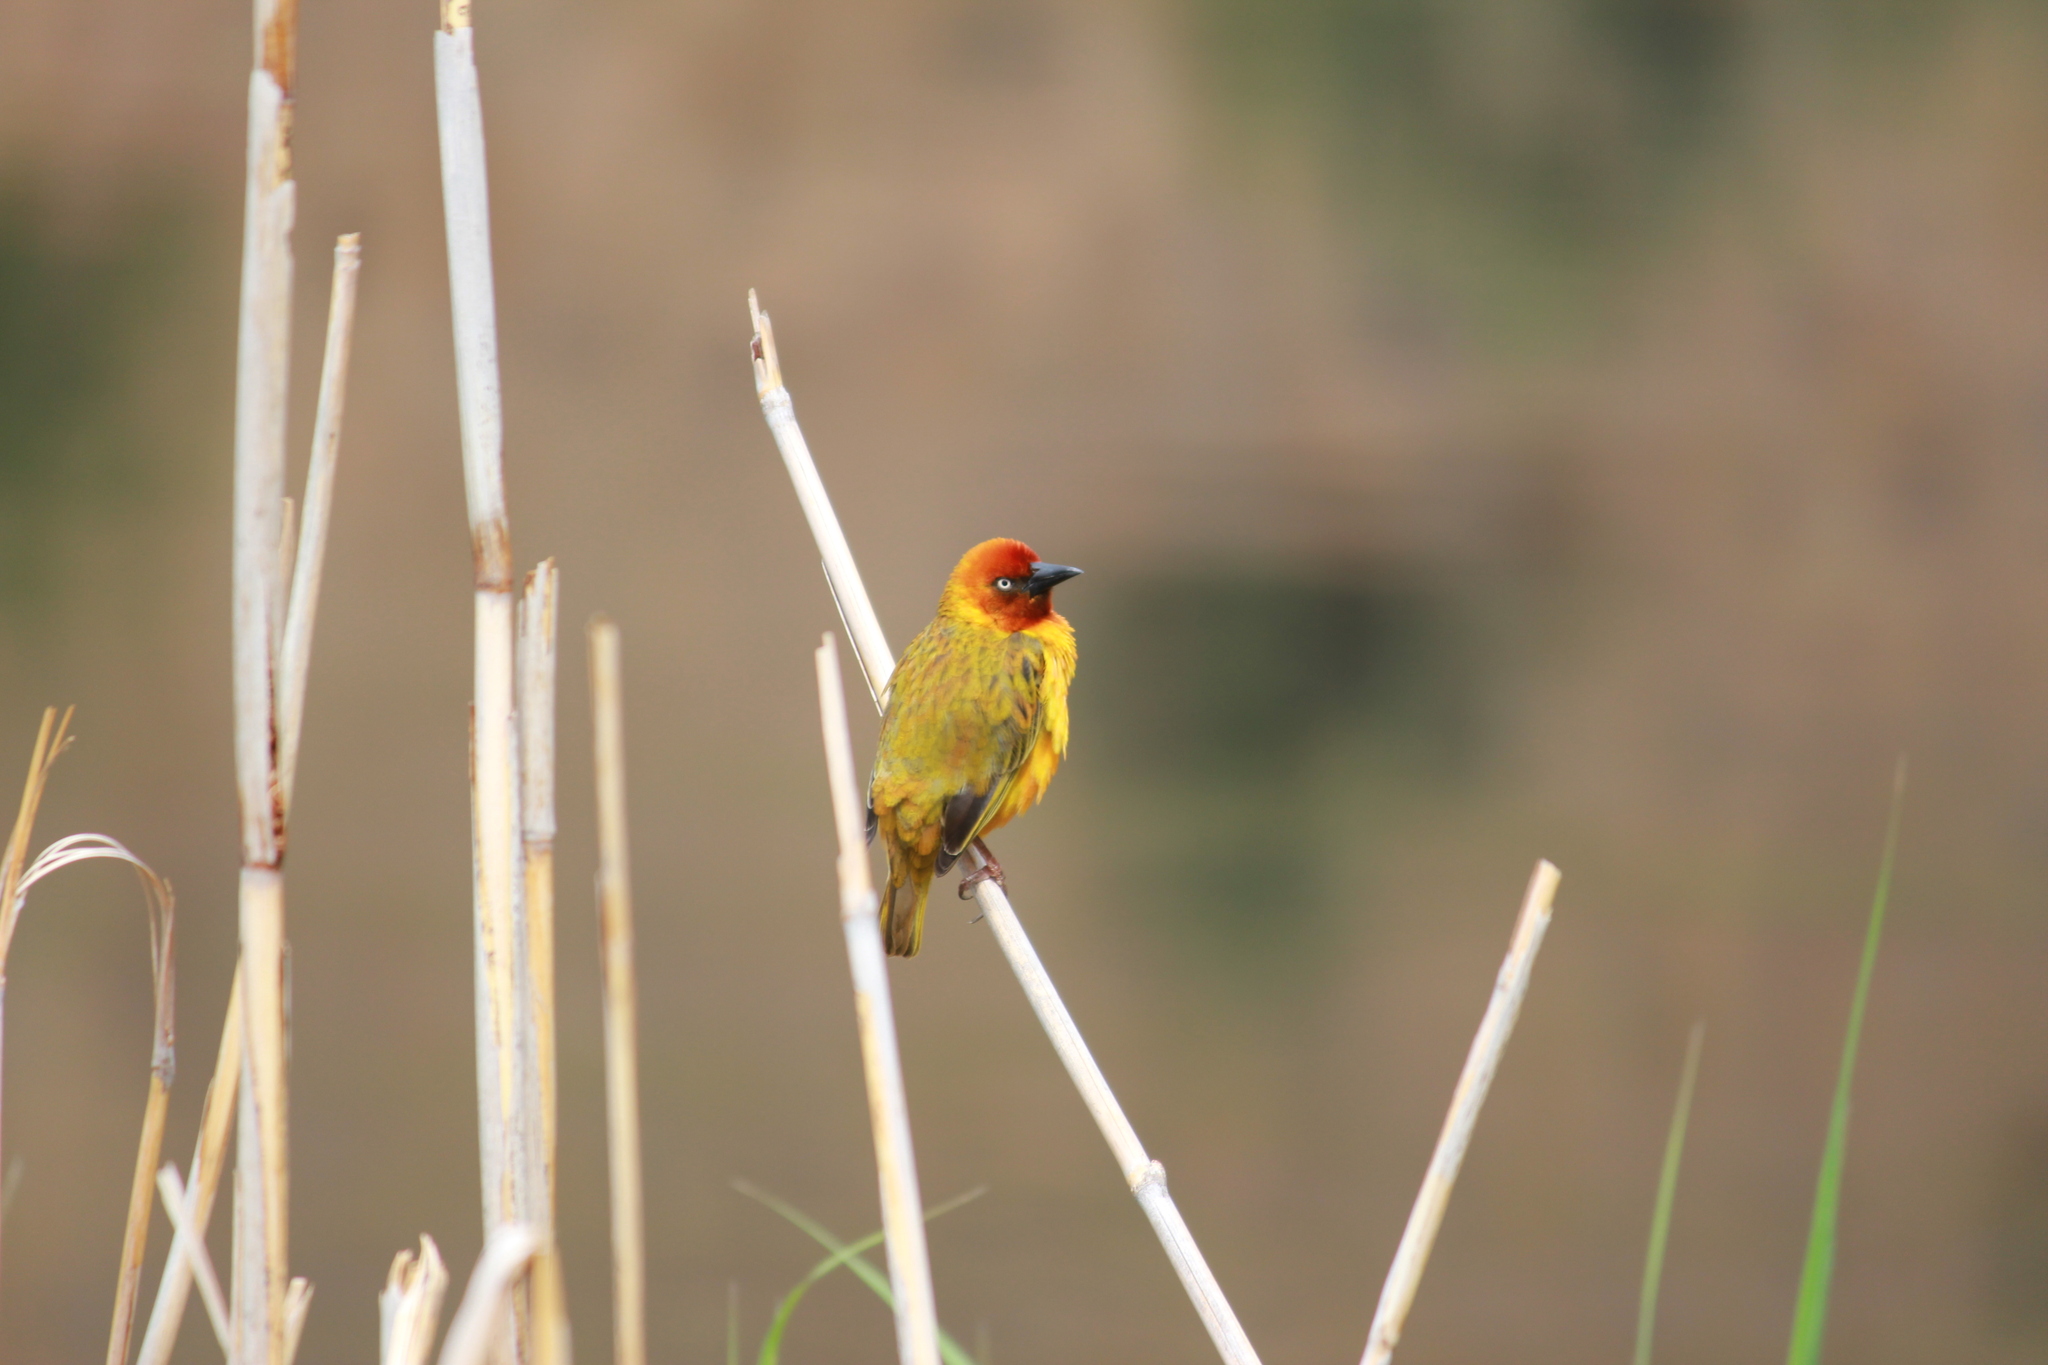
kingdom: Animalia
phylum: Chordata
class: Aves
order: Passeriformes
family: Ploceidae
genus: Ploceus
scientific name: Ploceus capensis
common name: Cape weaver
